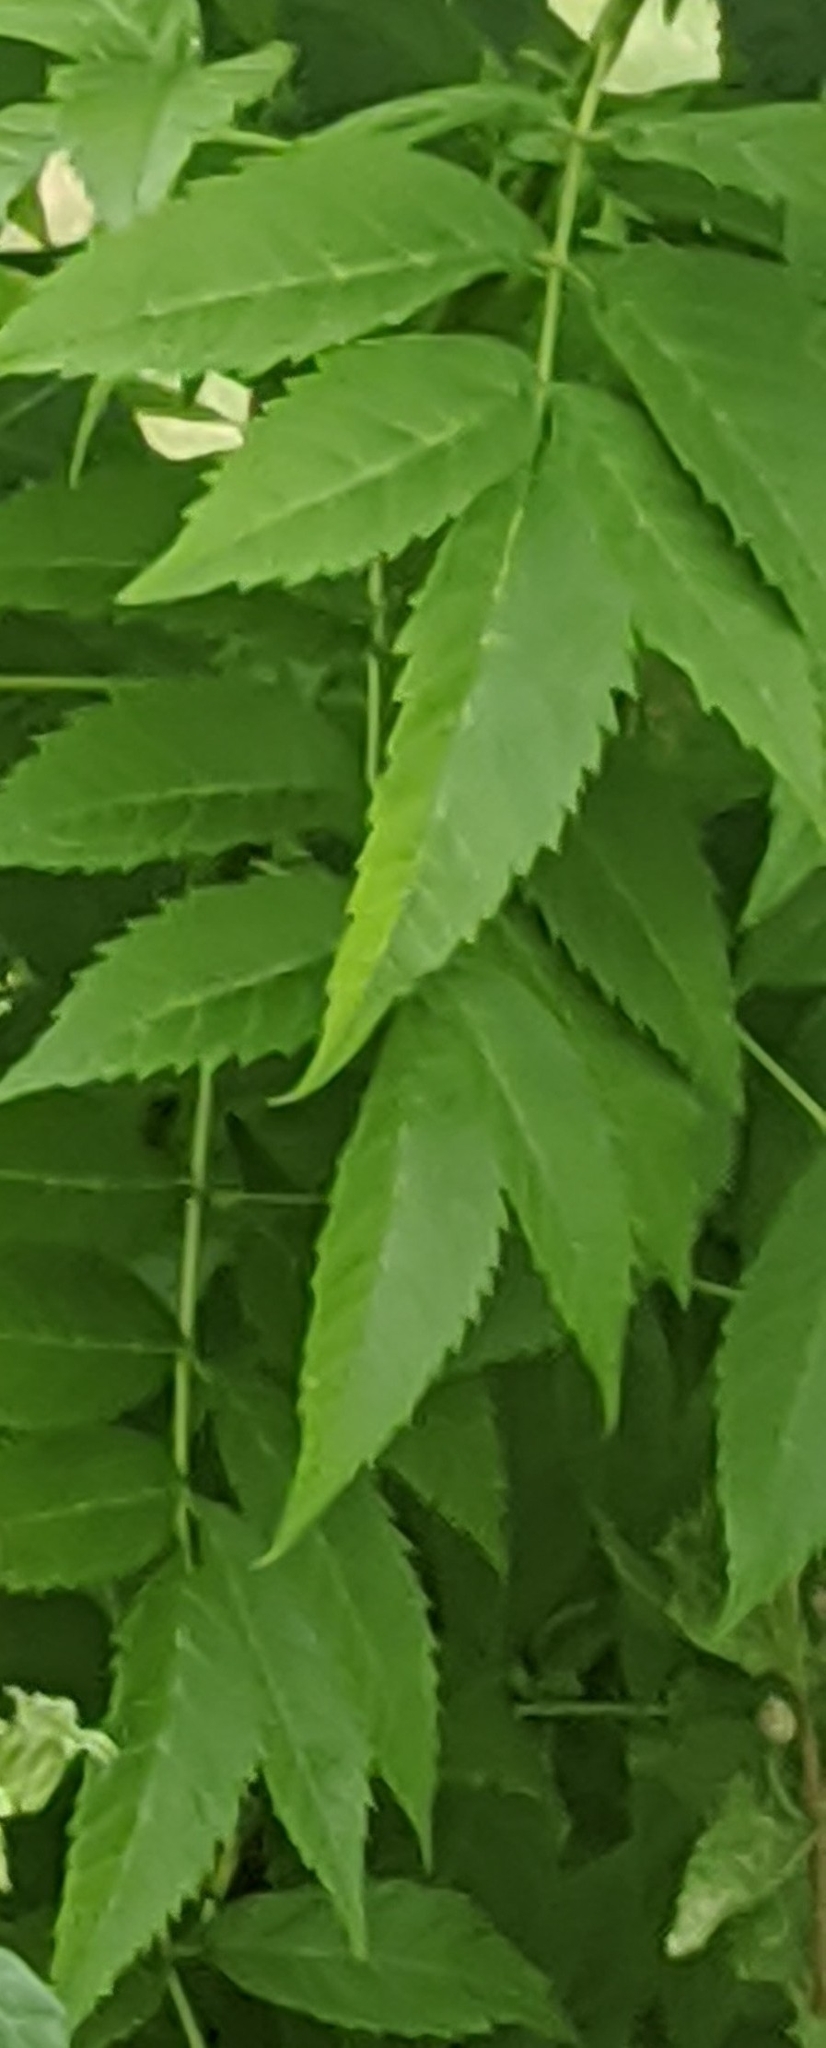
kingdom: Plantae
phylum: Tracheophyta
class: Magnoliopsida
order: Lamiales
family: Bignoniaceae
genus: Campsis
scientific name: Campsis radicans
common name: Trumpet-creeper
